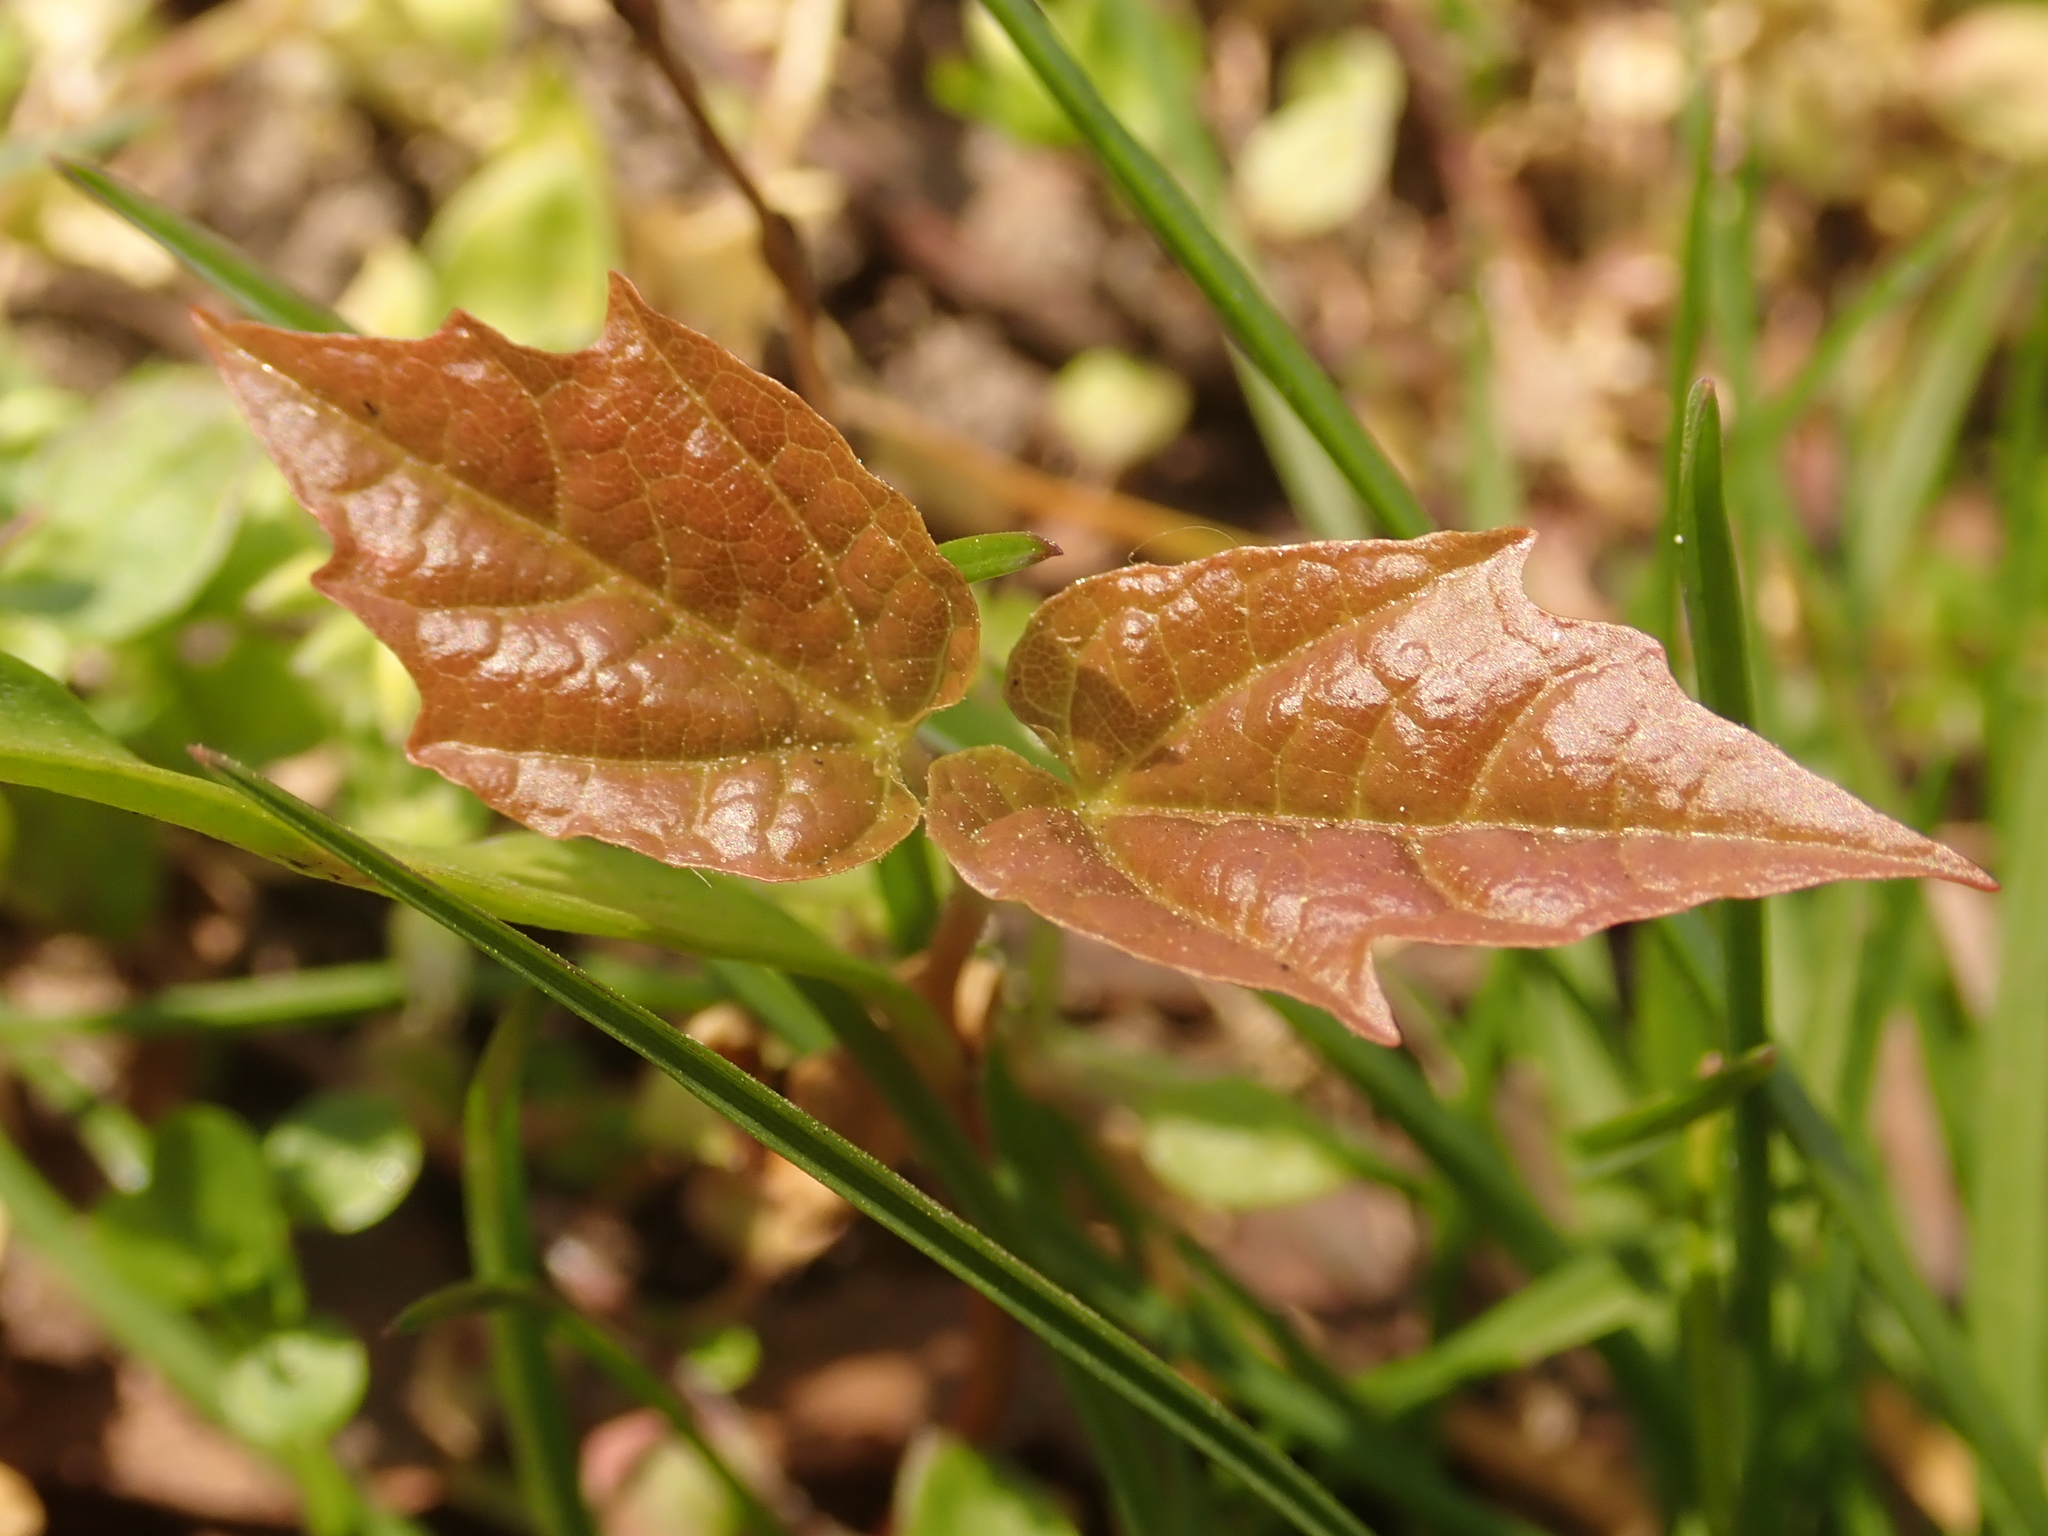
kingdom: Plantae
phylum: Tracheophyta
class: Magnoliopsida
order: Sapindales
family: Sapindaceae
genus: Acer
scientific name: Acer platanoides
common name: Norway maple
